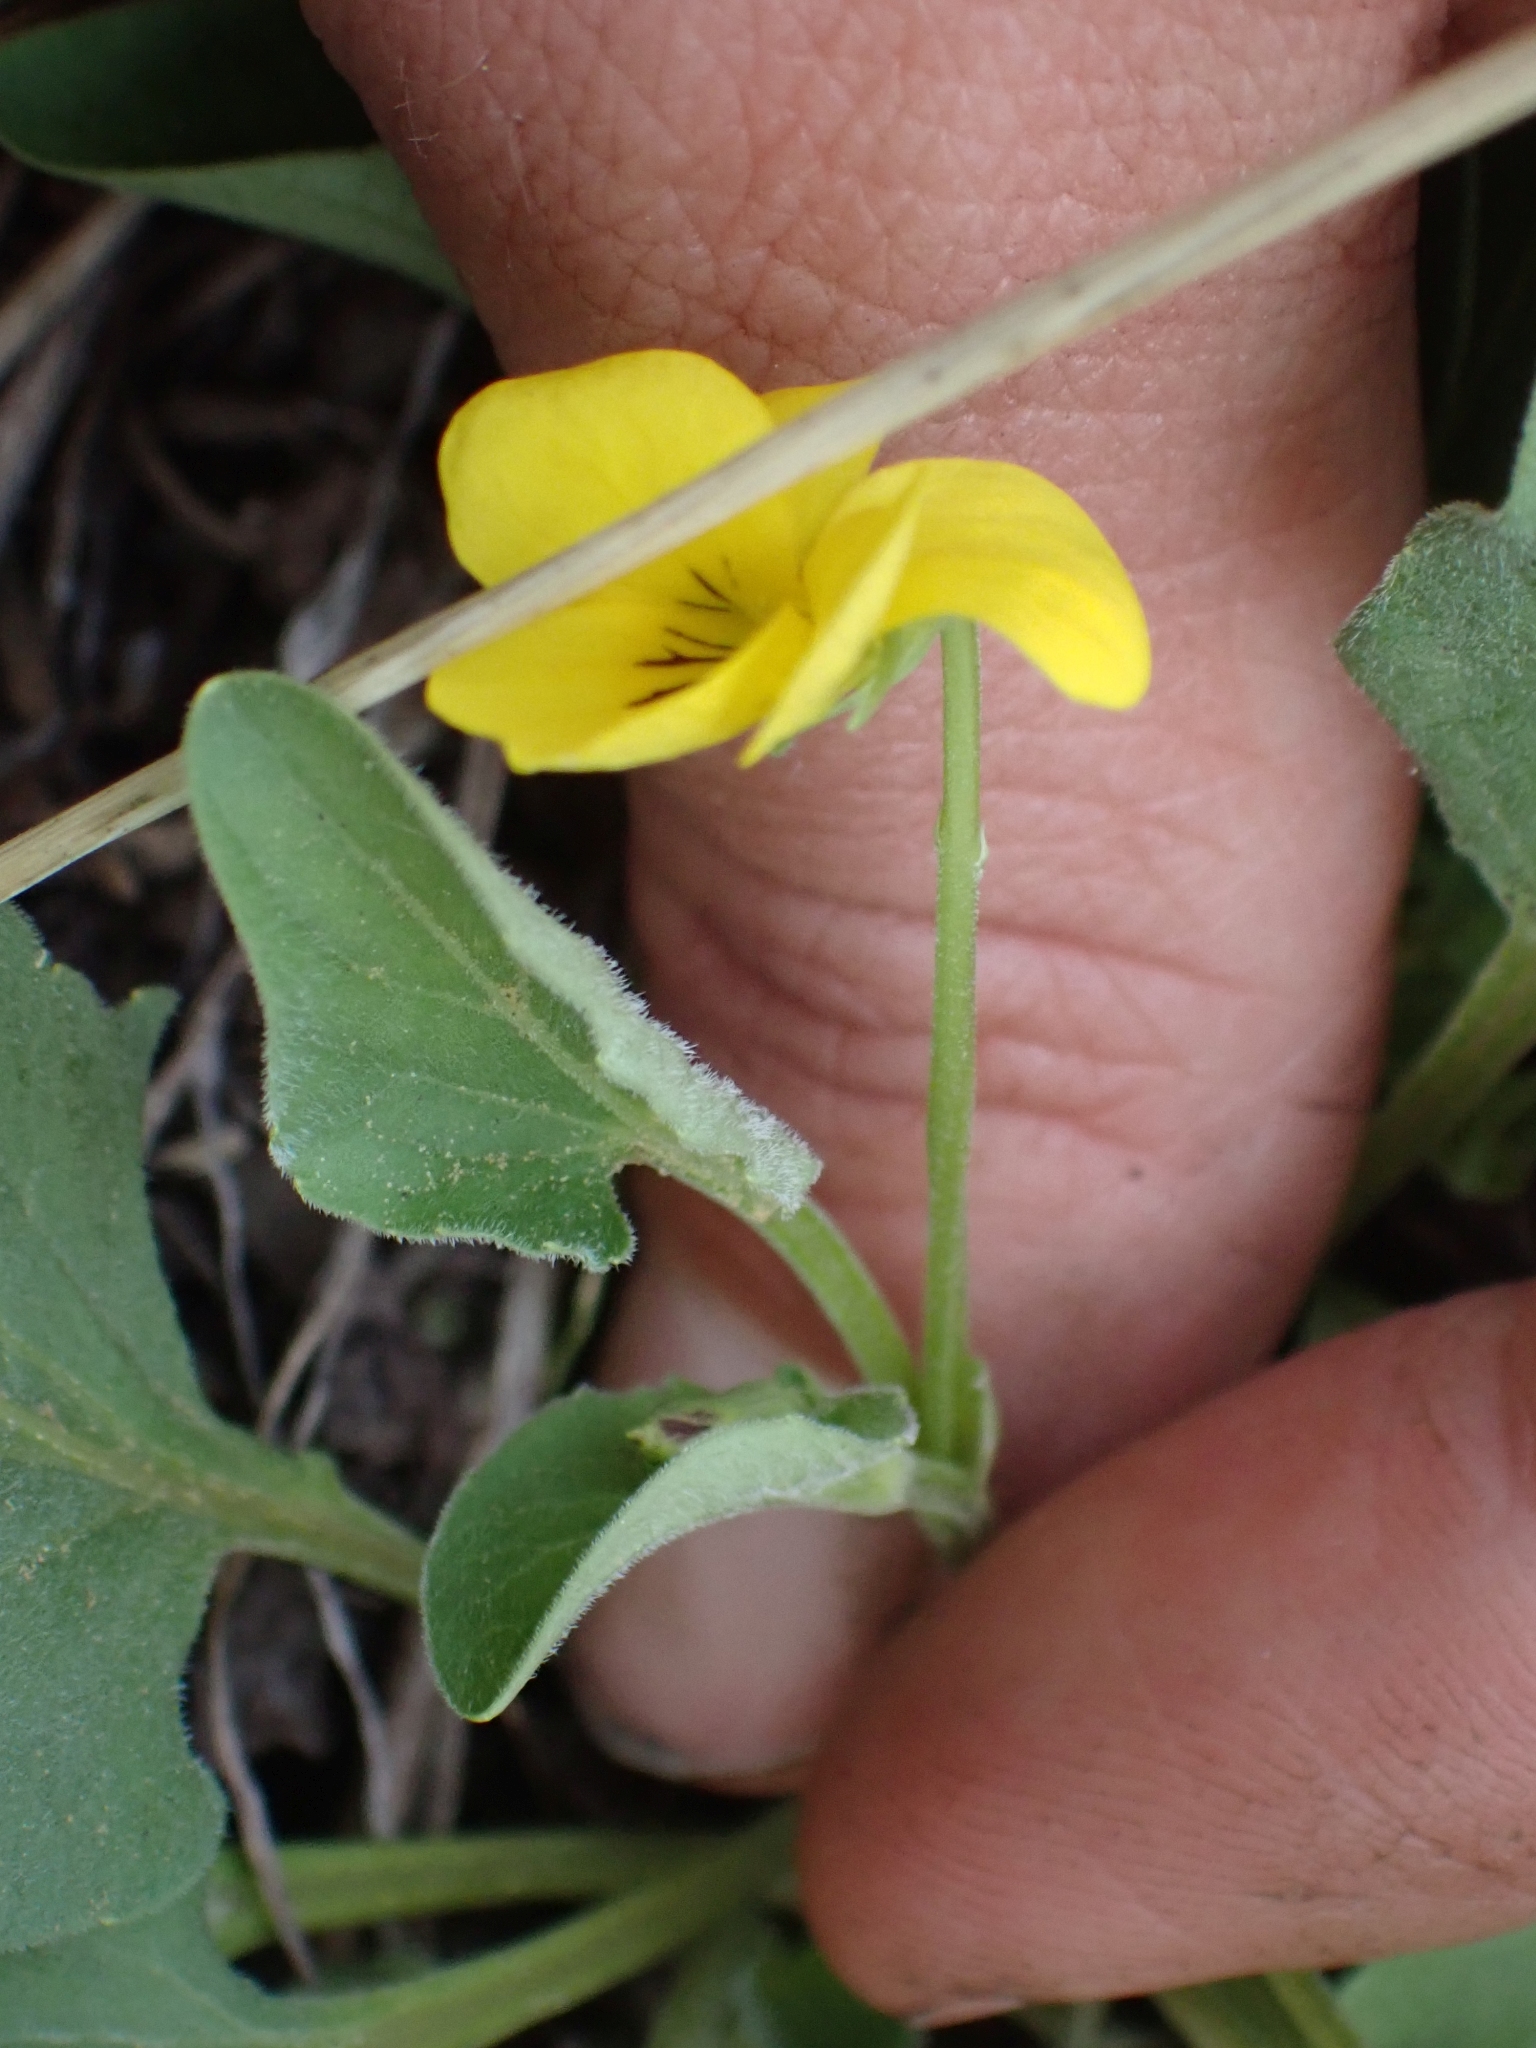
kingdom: Plantae
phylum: Tracheophyta
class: Magnoliopsida
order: Malpighiales
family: Violaceae
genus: Viola
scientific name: Viola vallicola
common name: Valley violet
